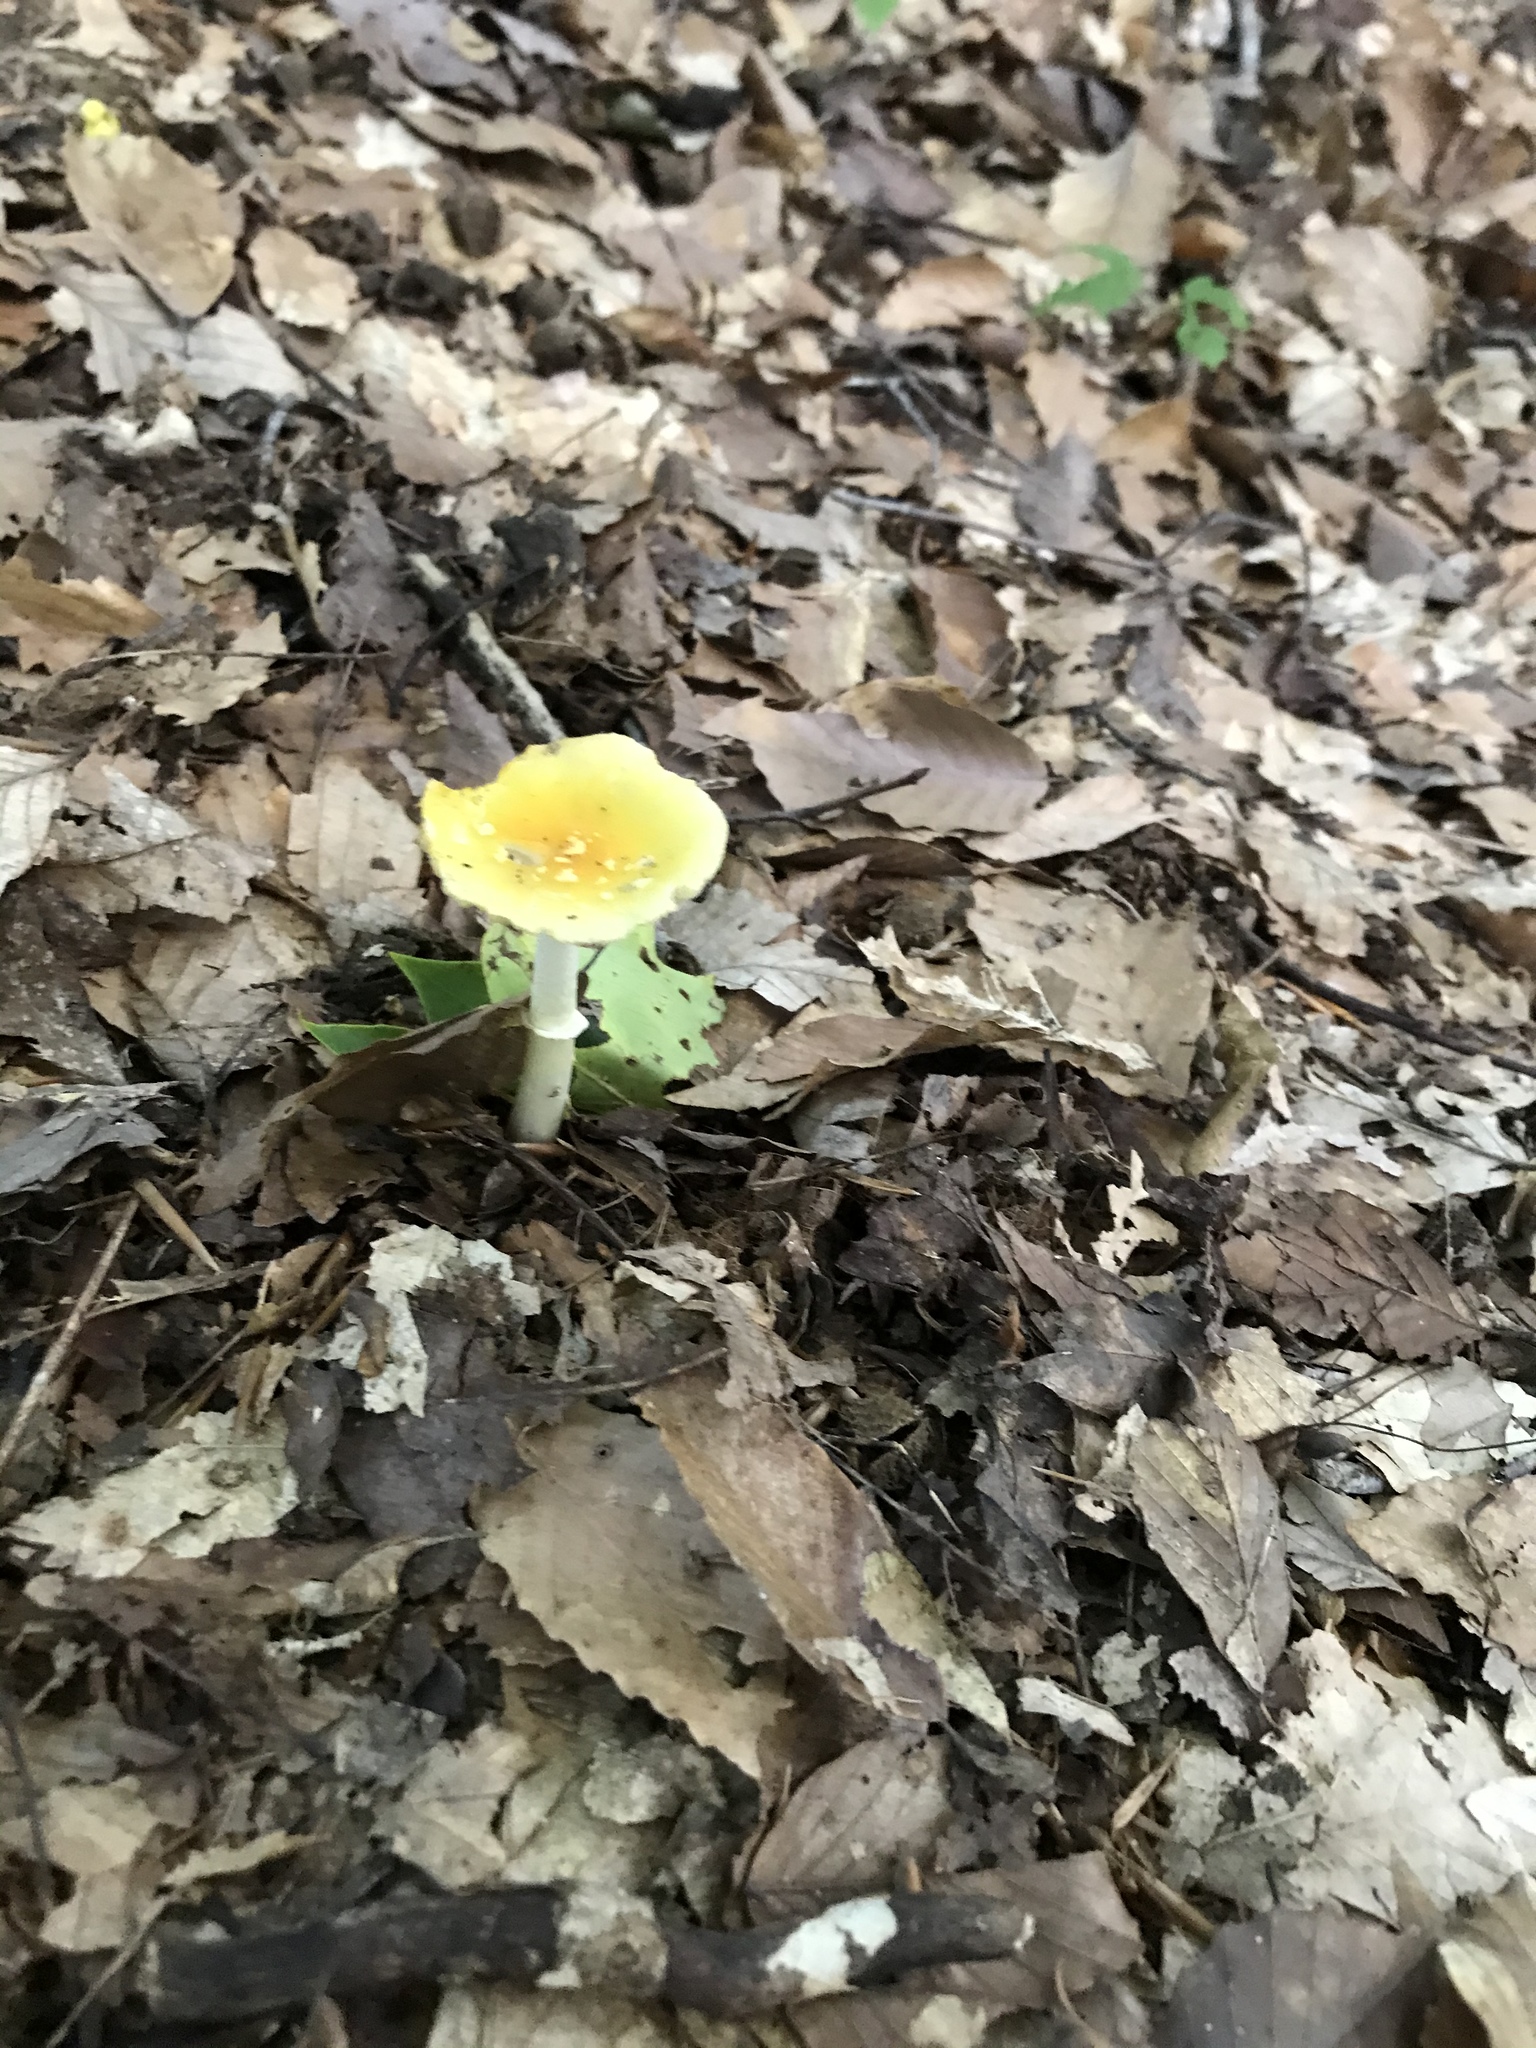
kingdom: Fungi
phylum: Basidiomycota
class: Agaricomycetes
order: Agaricales
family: Amanitaceae
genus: Amanita
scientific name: Amanita flavoconia
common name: Yellow patches
